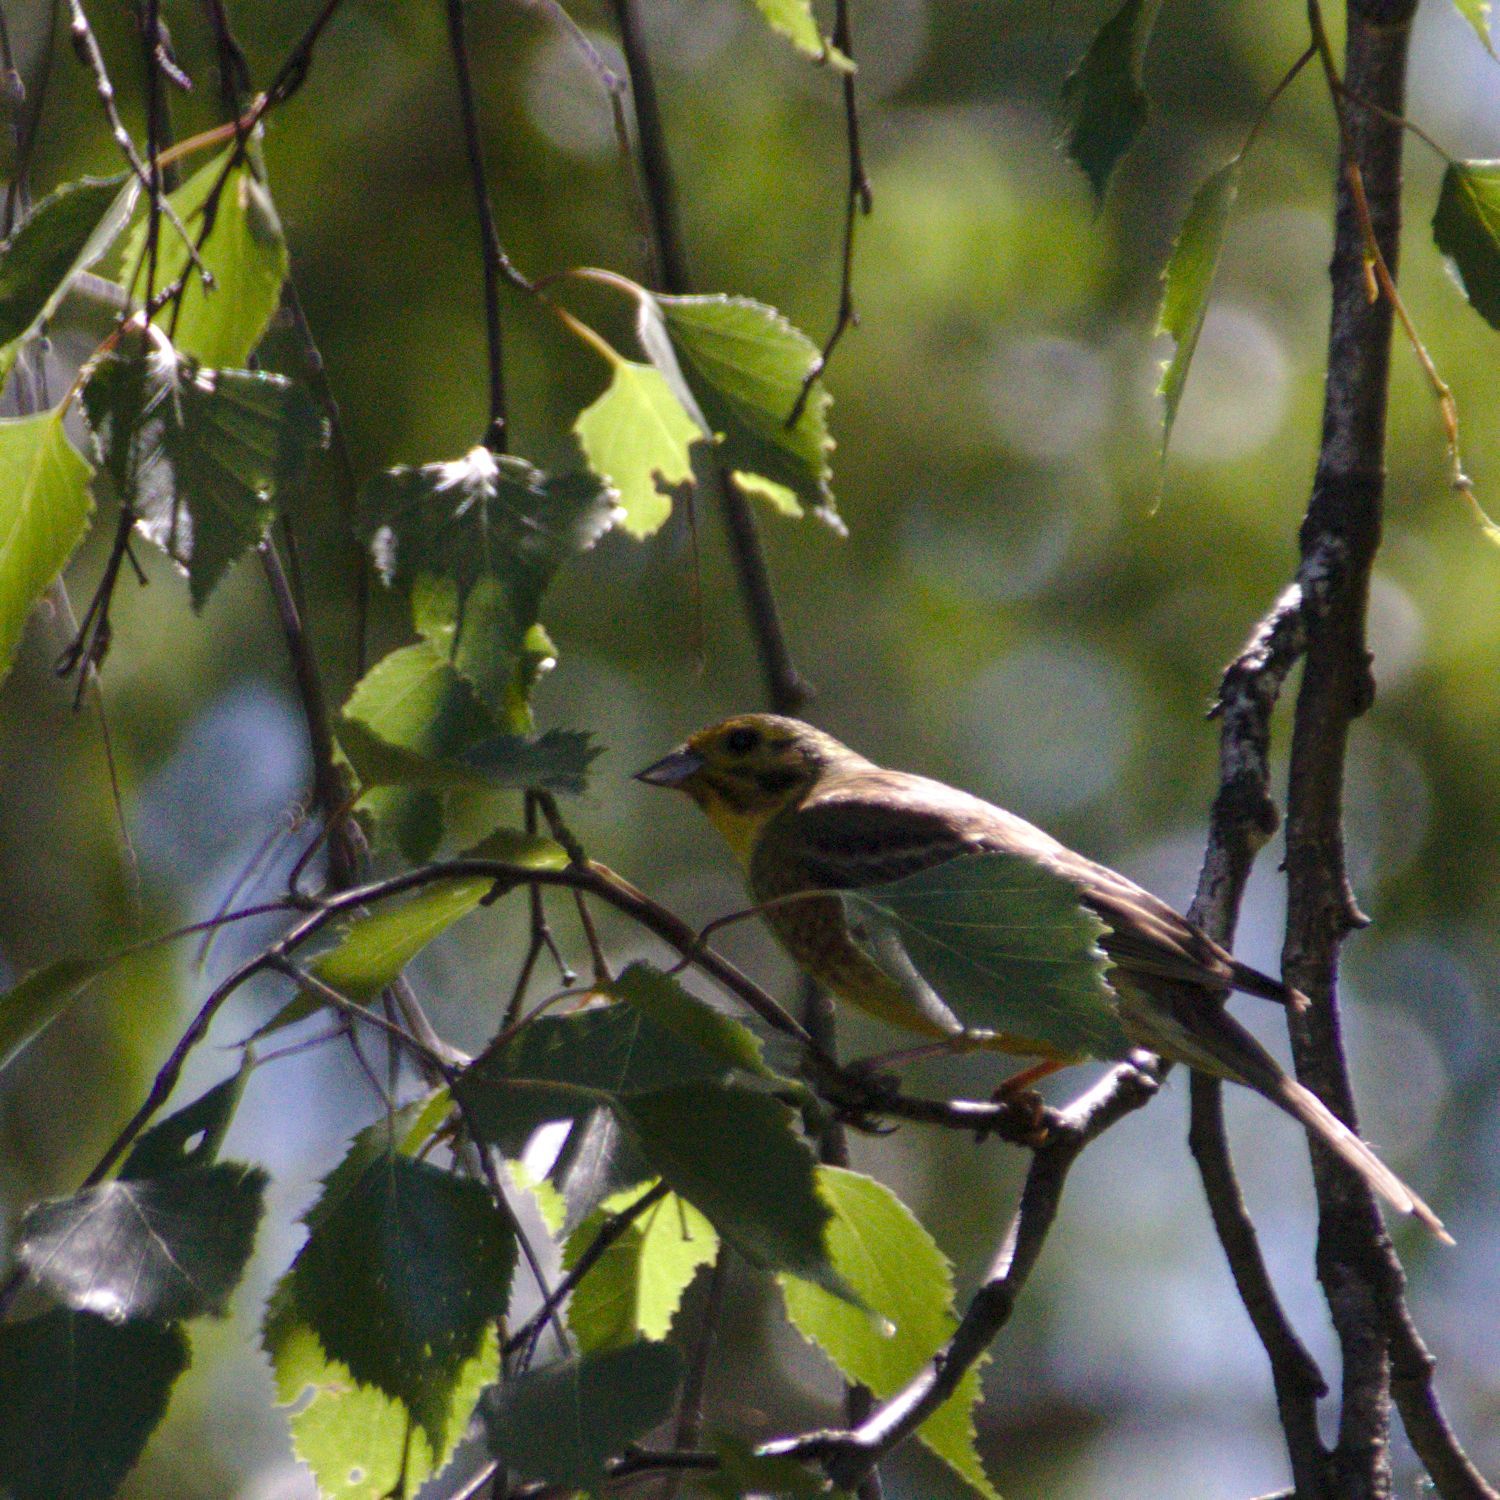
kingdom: Animalia
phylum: Chordata
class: Aves
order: Passeriformes
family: Emberizidae
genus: Emberiza
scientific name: Emberiza
